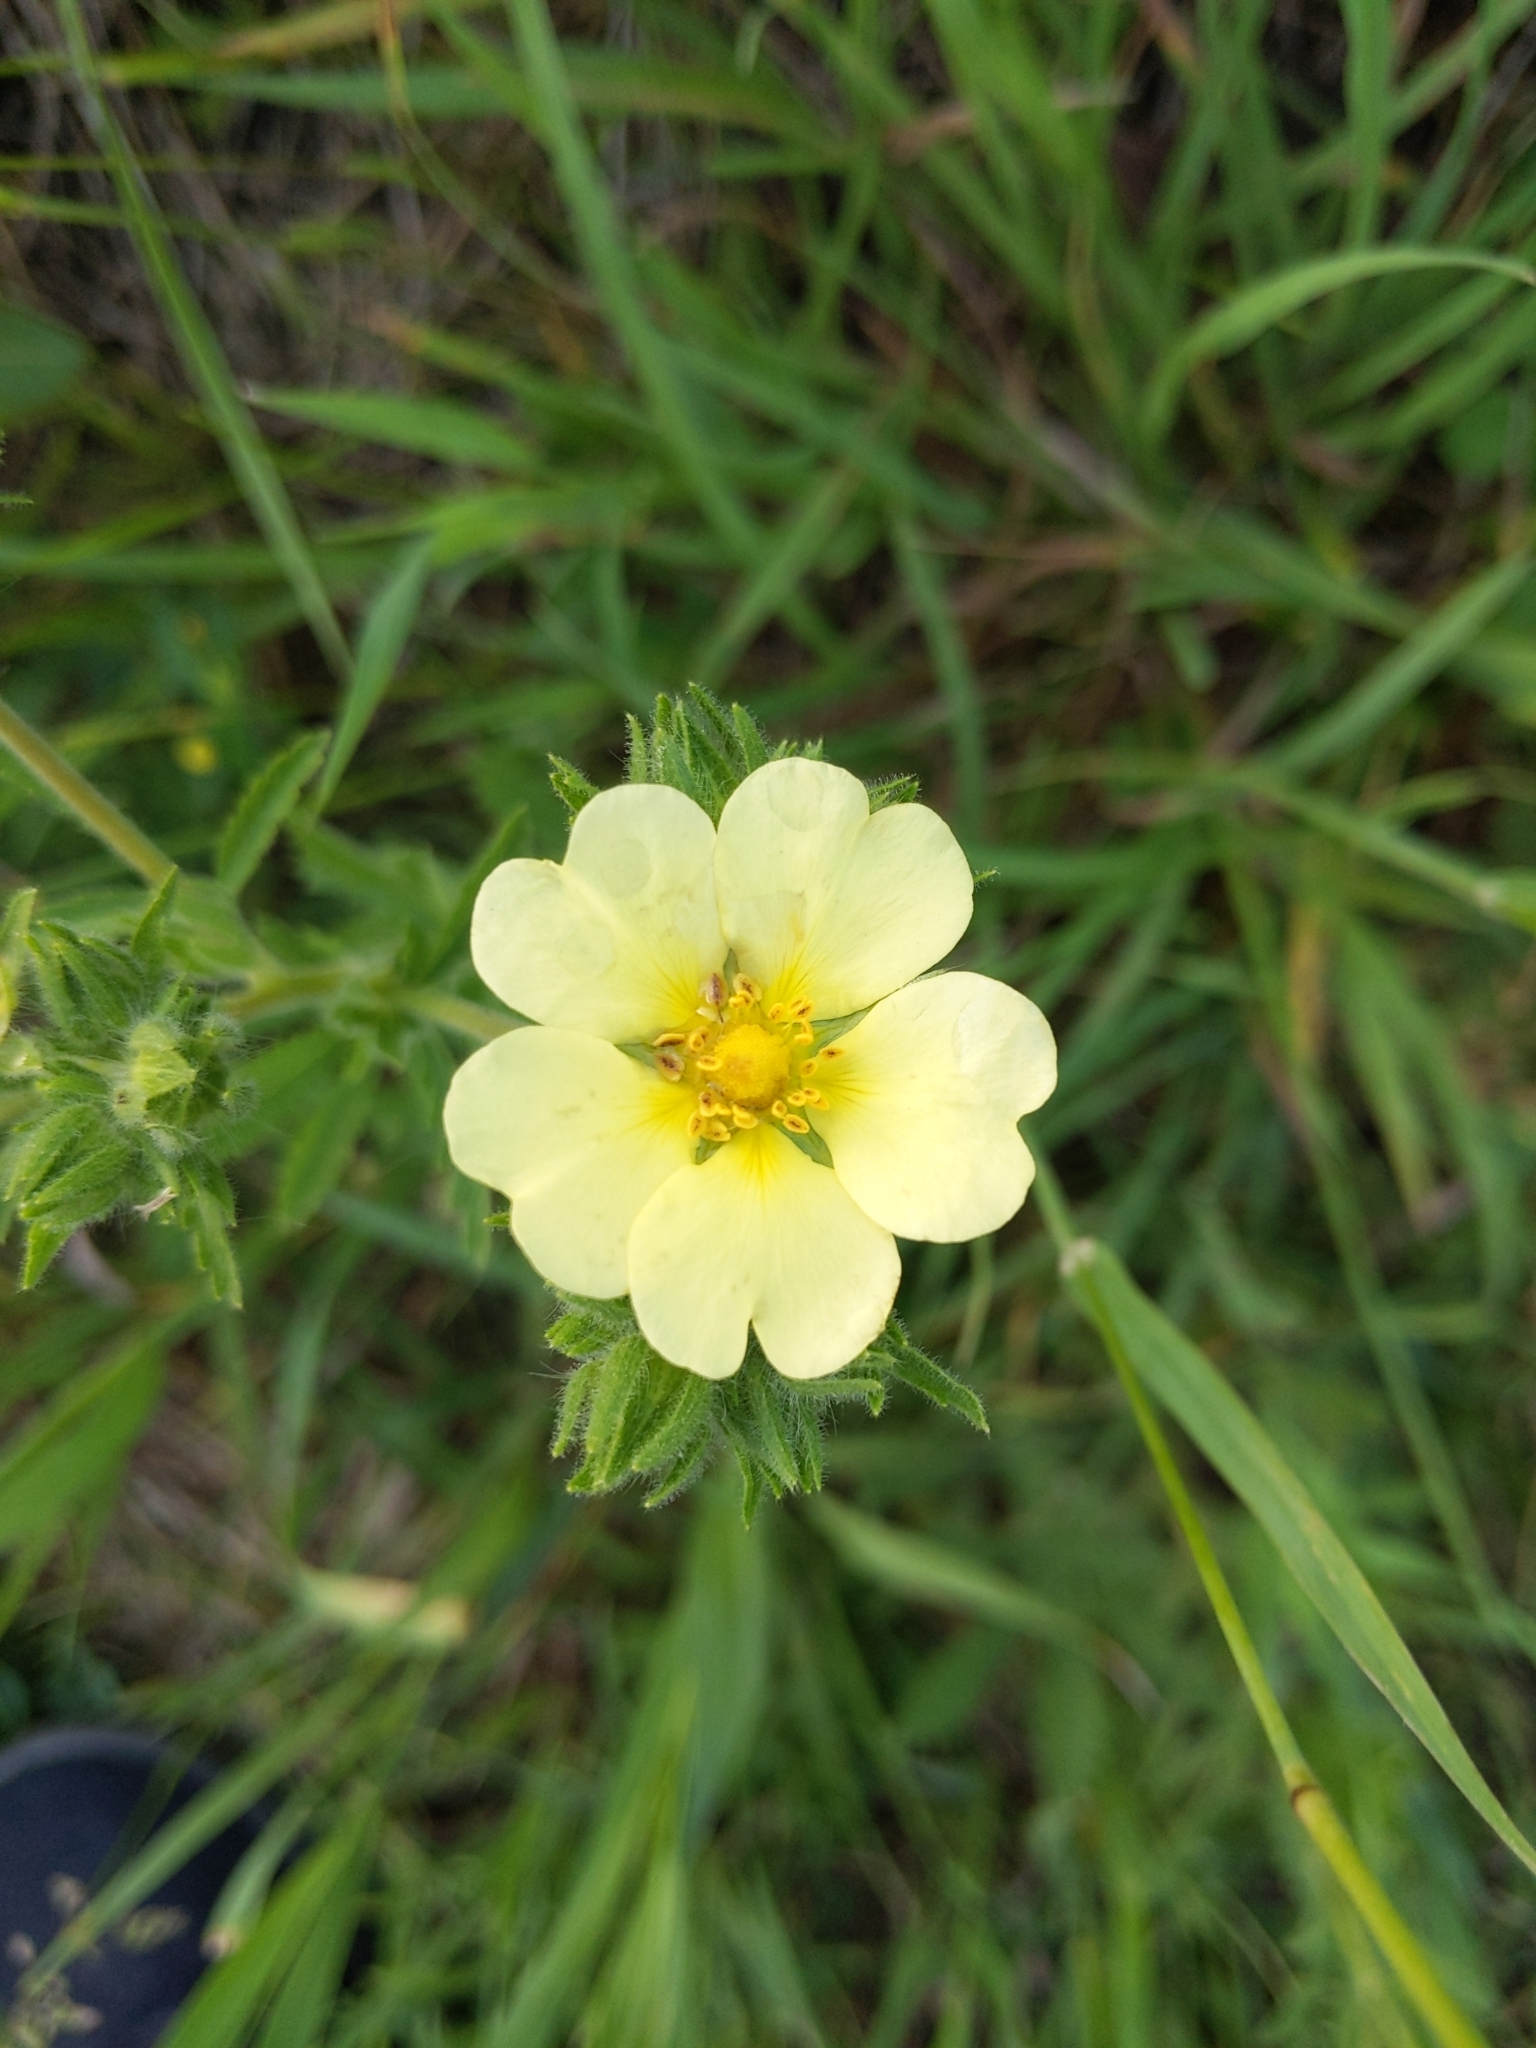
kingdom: Plantae
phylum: Tracheophyta
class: Magnoliopsida
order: Rosales
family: Rosaceae
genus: Potentilla
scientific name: Potentilla recta
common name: Sulphur cinquefoil
